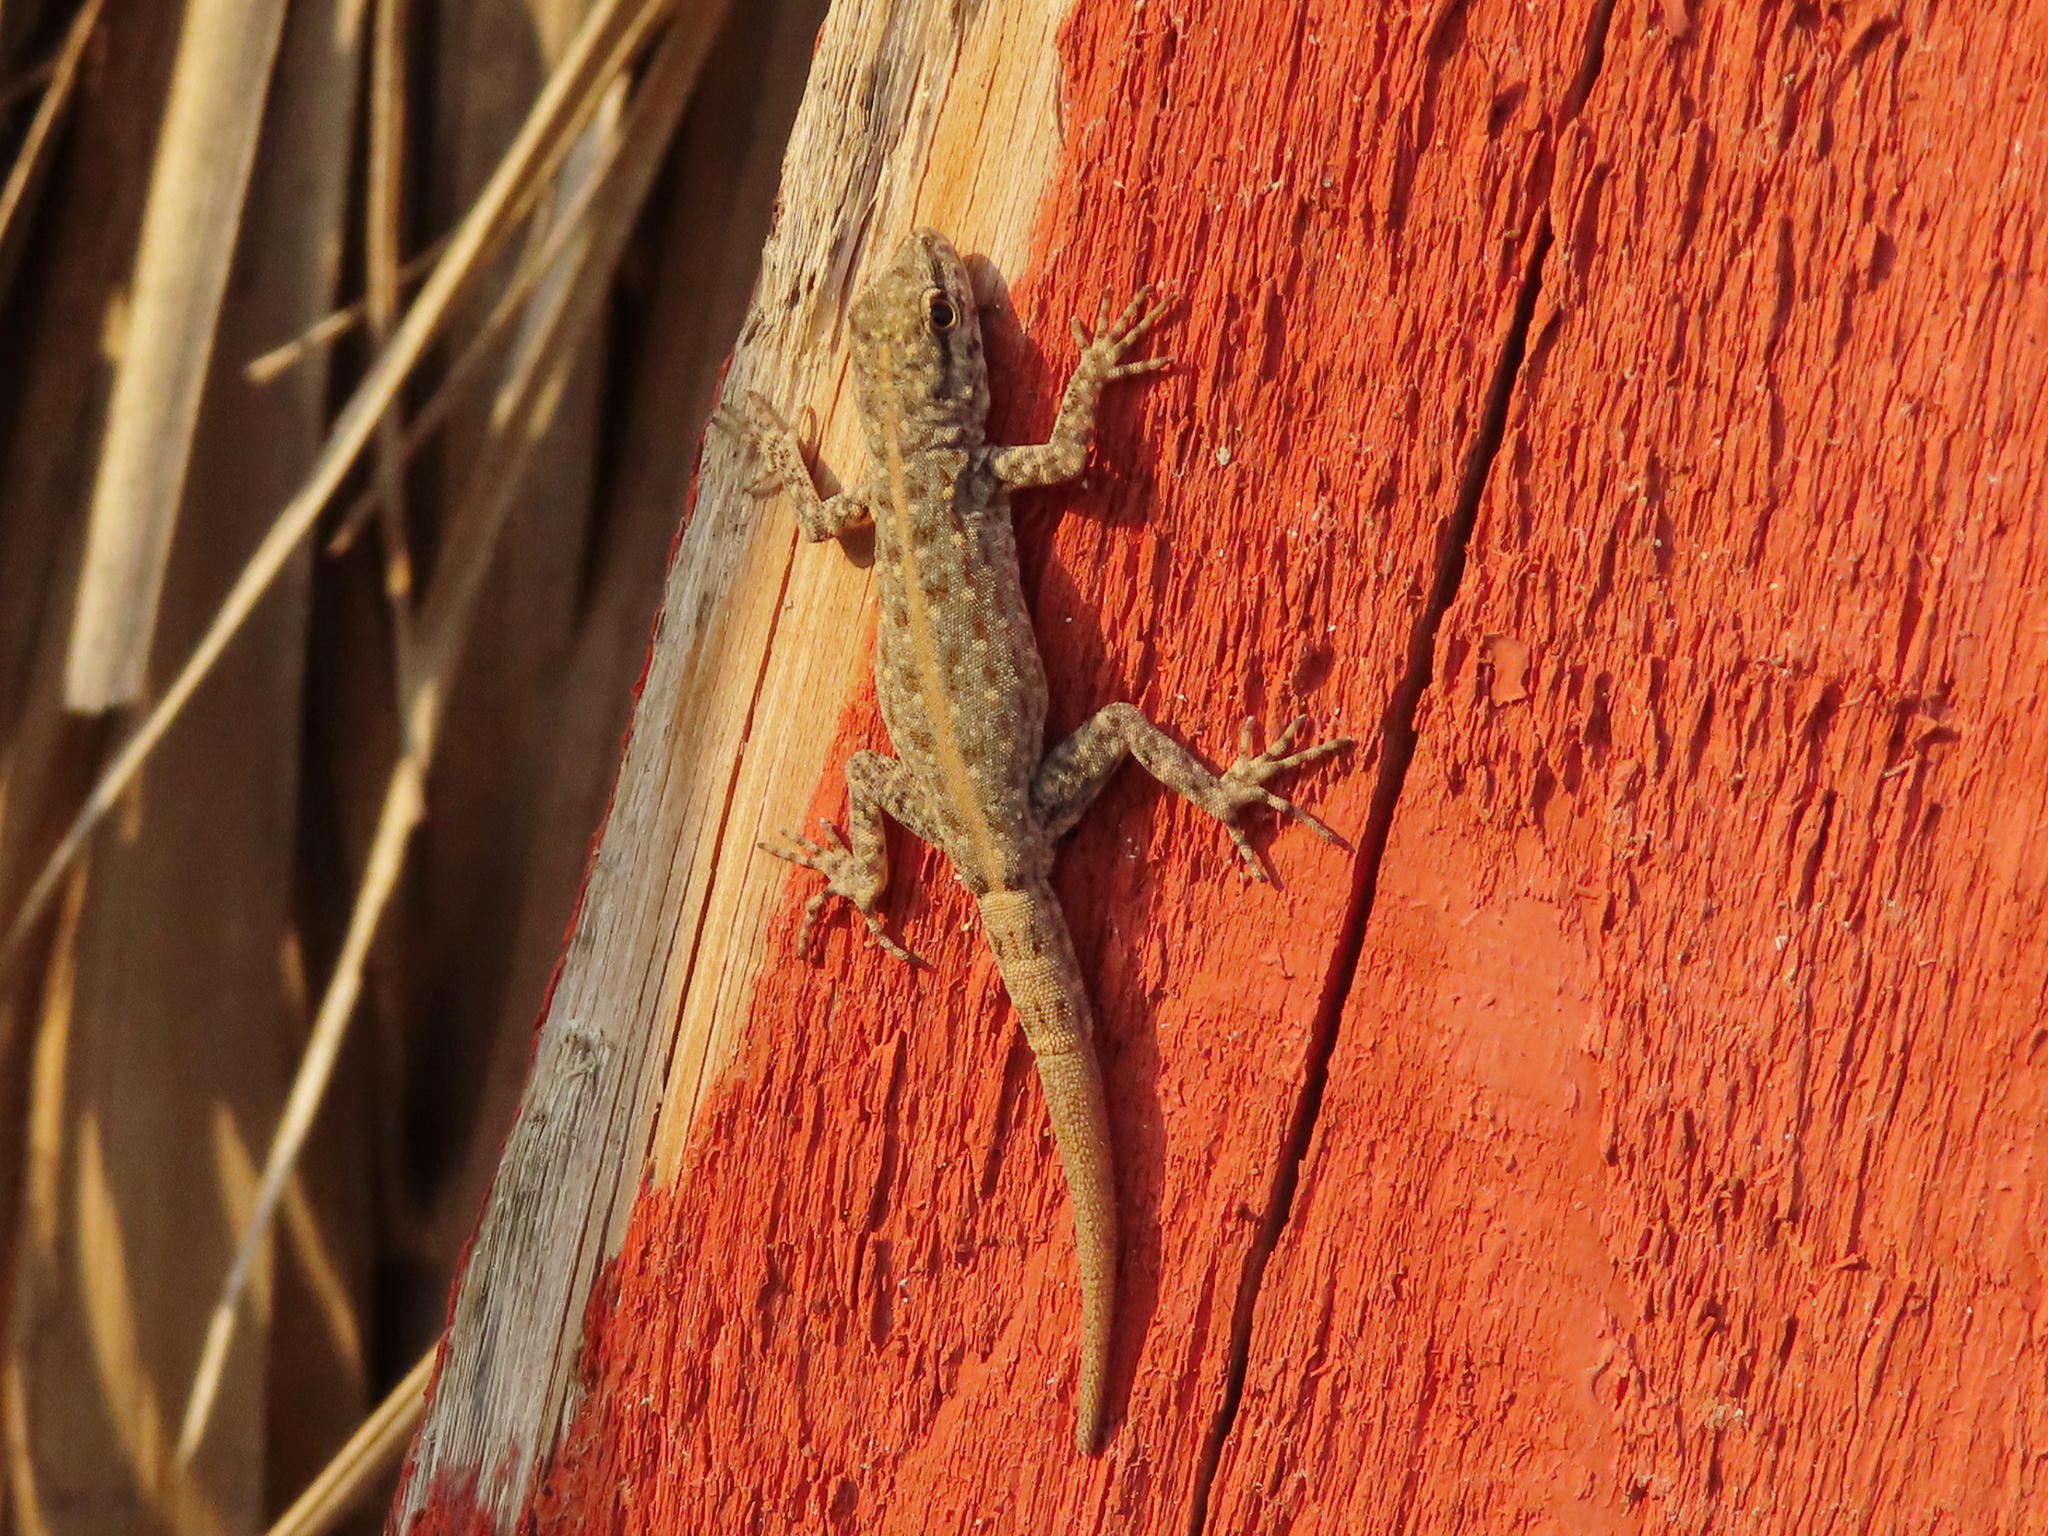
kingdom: Animalia
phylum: Chordata
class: Squamata
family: Sphaerodactylidae
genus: Pristurus
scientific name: Pristurus rupestris
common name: Blanford’s semaphore gecko
